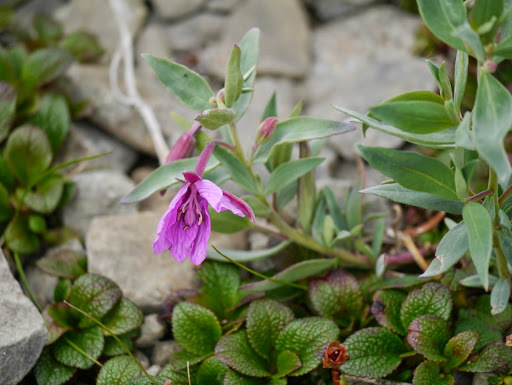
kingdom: Plantae
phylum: Tracheophyta
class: Magnoliopsida
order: Myrtales
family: Onagraceae
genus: Chamaenerion
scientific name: Chamaenerion latifolium
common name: Dwarf fireweed
